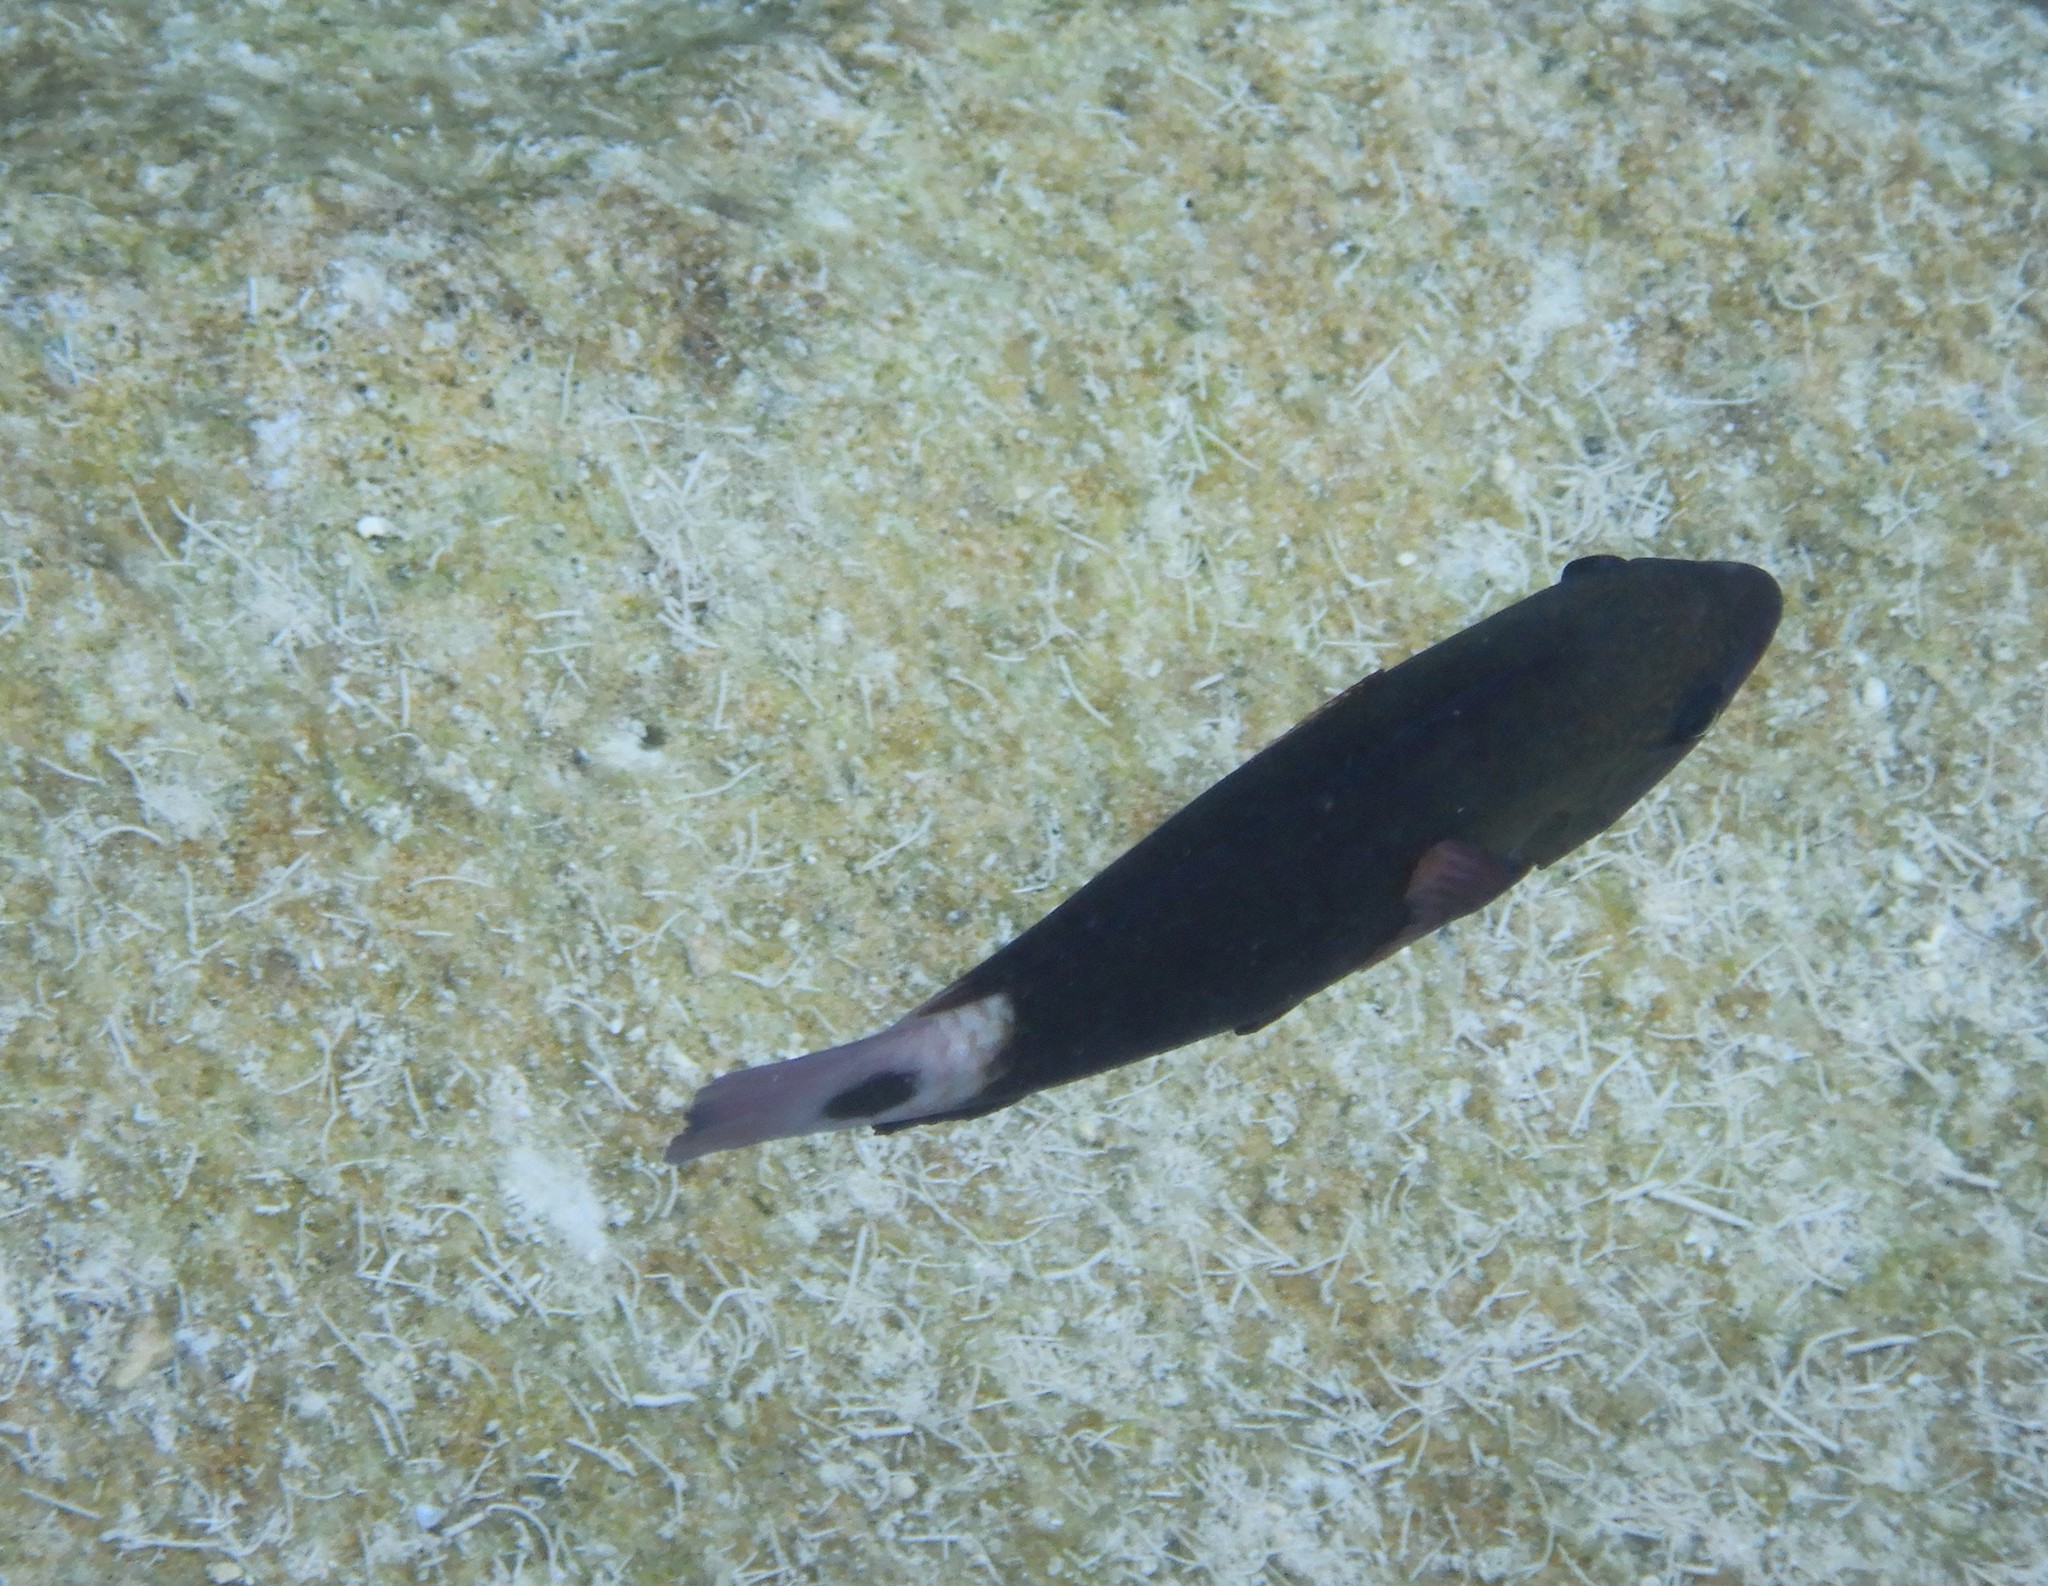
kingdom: Animalia
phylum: Chordata
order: Perciformes
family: Scaridae
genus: Chlorurus
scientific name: Chlorurus spilurus
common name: Bullethead parrotfish
